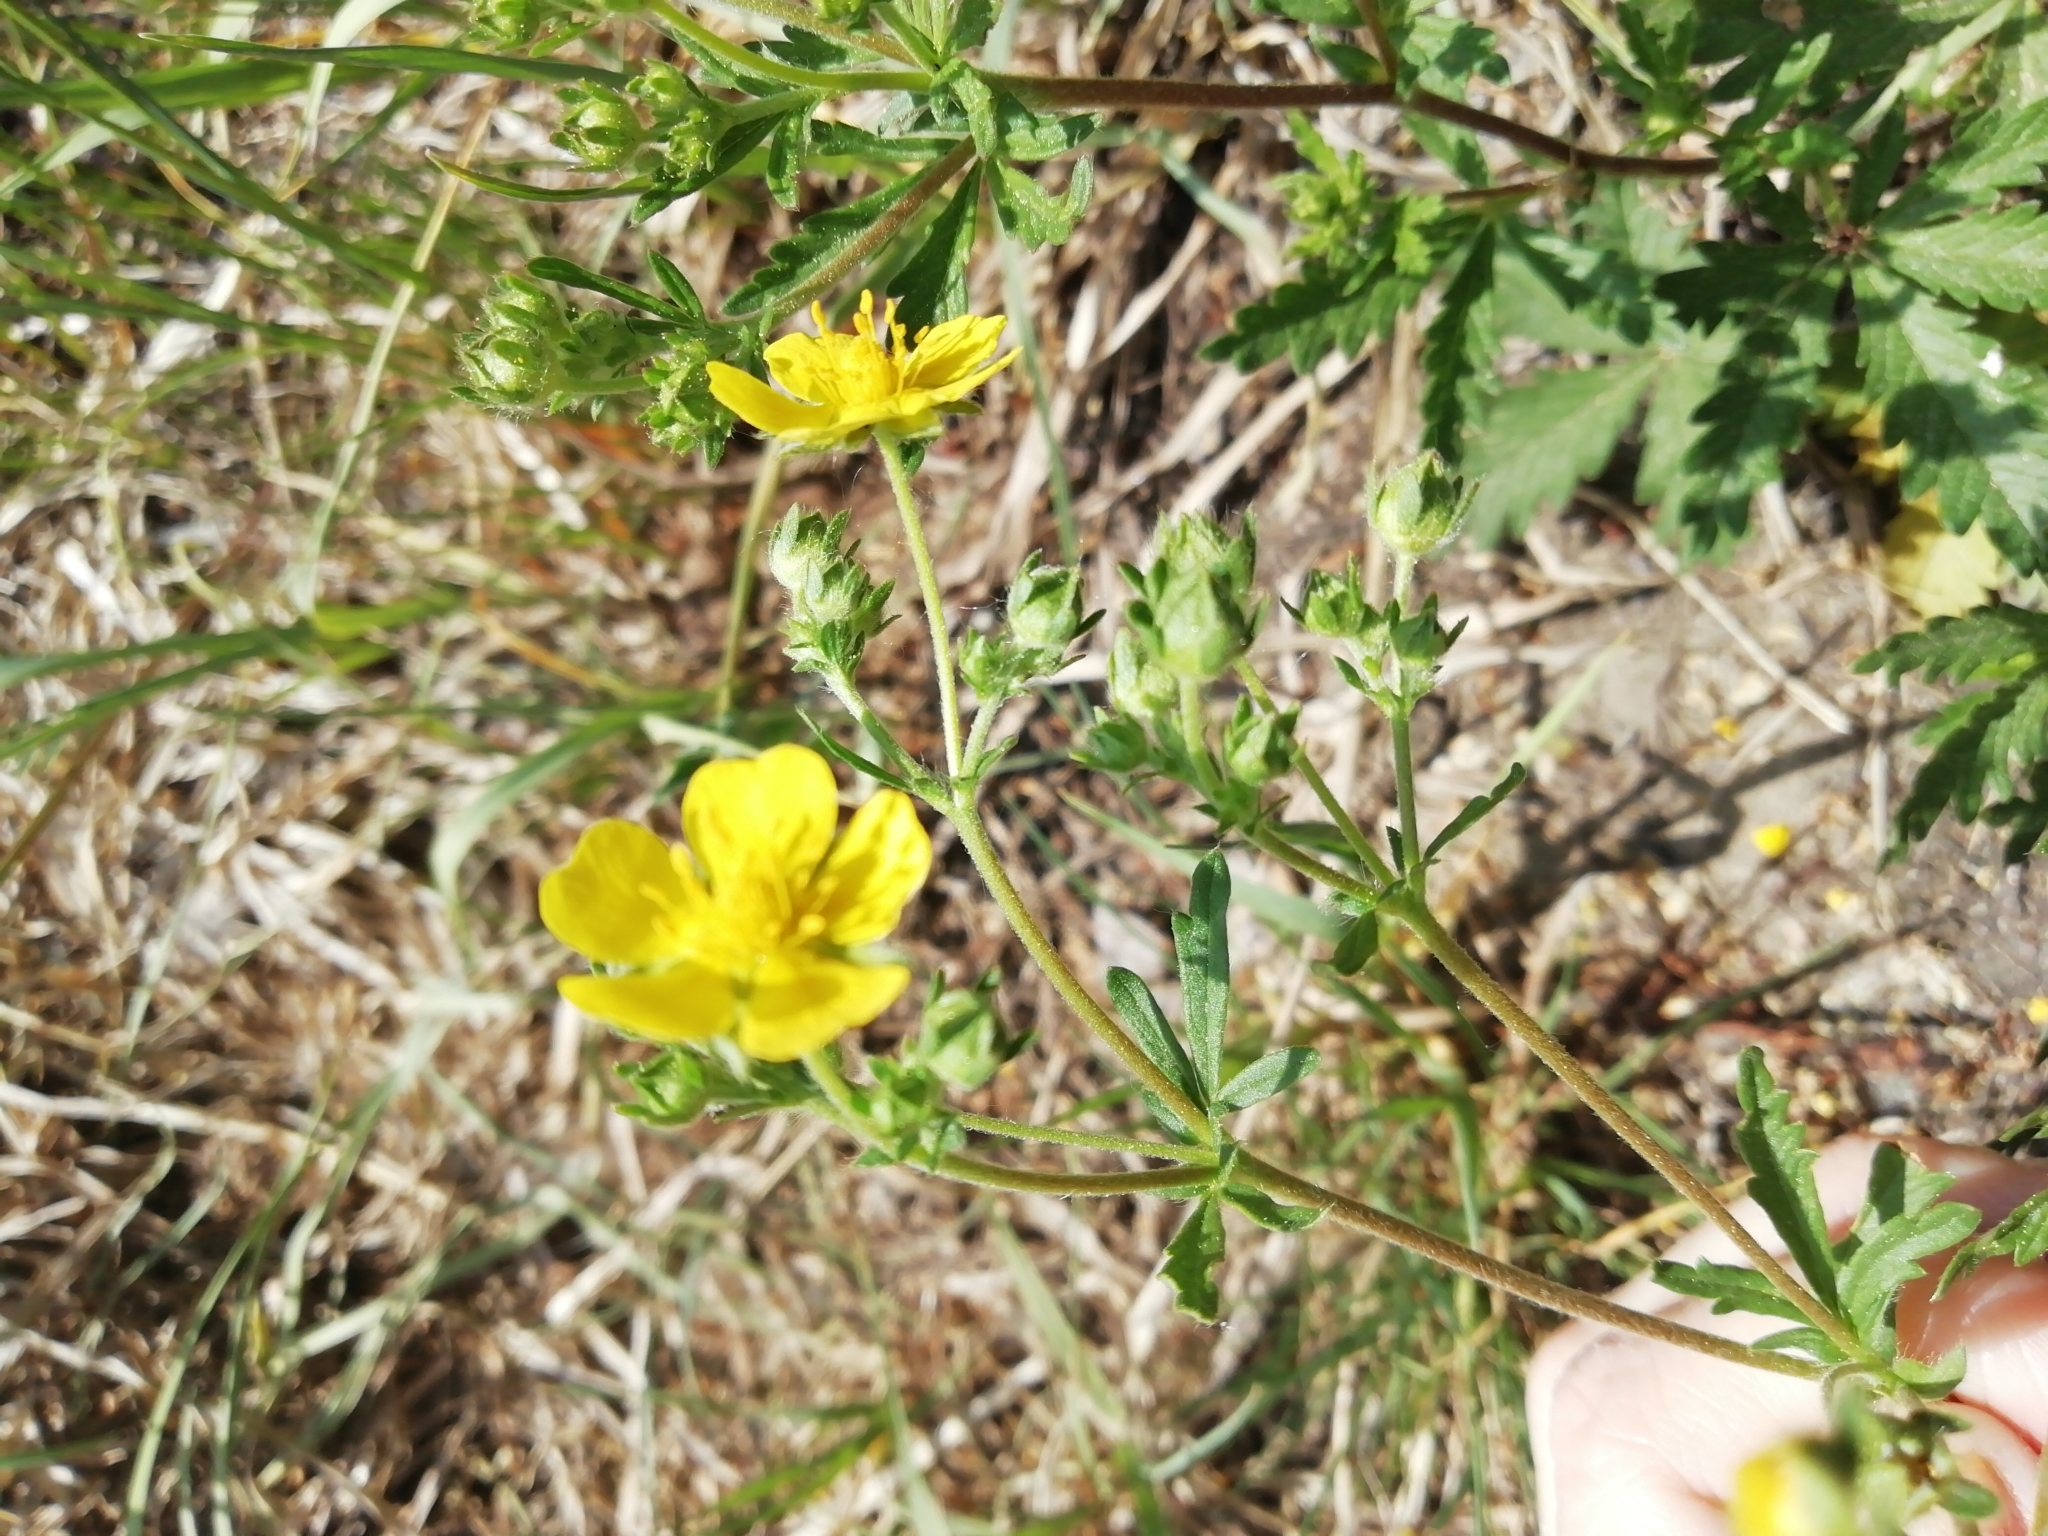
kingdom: Plantae
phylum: Tracheophyta
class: Magnoliopsida
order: Rosales
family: Rosaceae
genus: Potentilla
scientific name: Potentilla argentea
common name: Hoary cinquefoil
